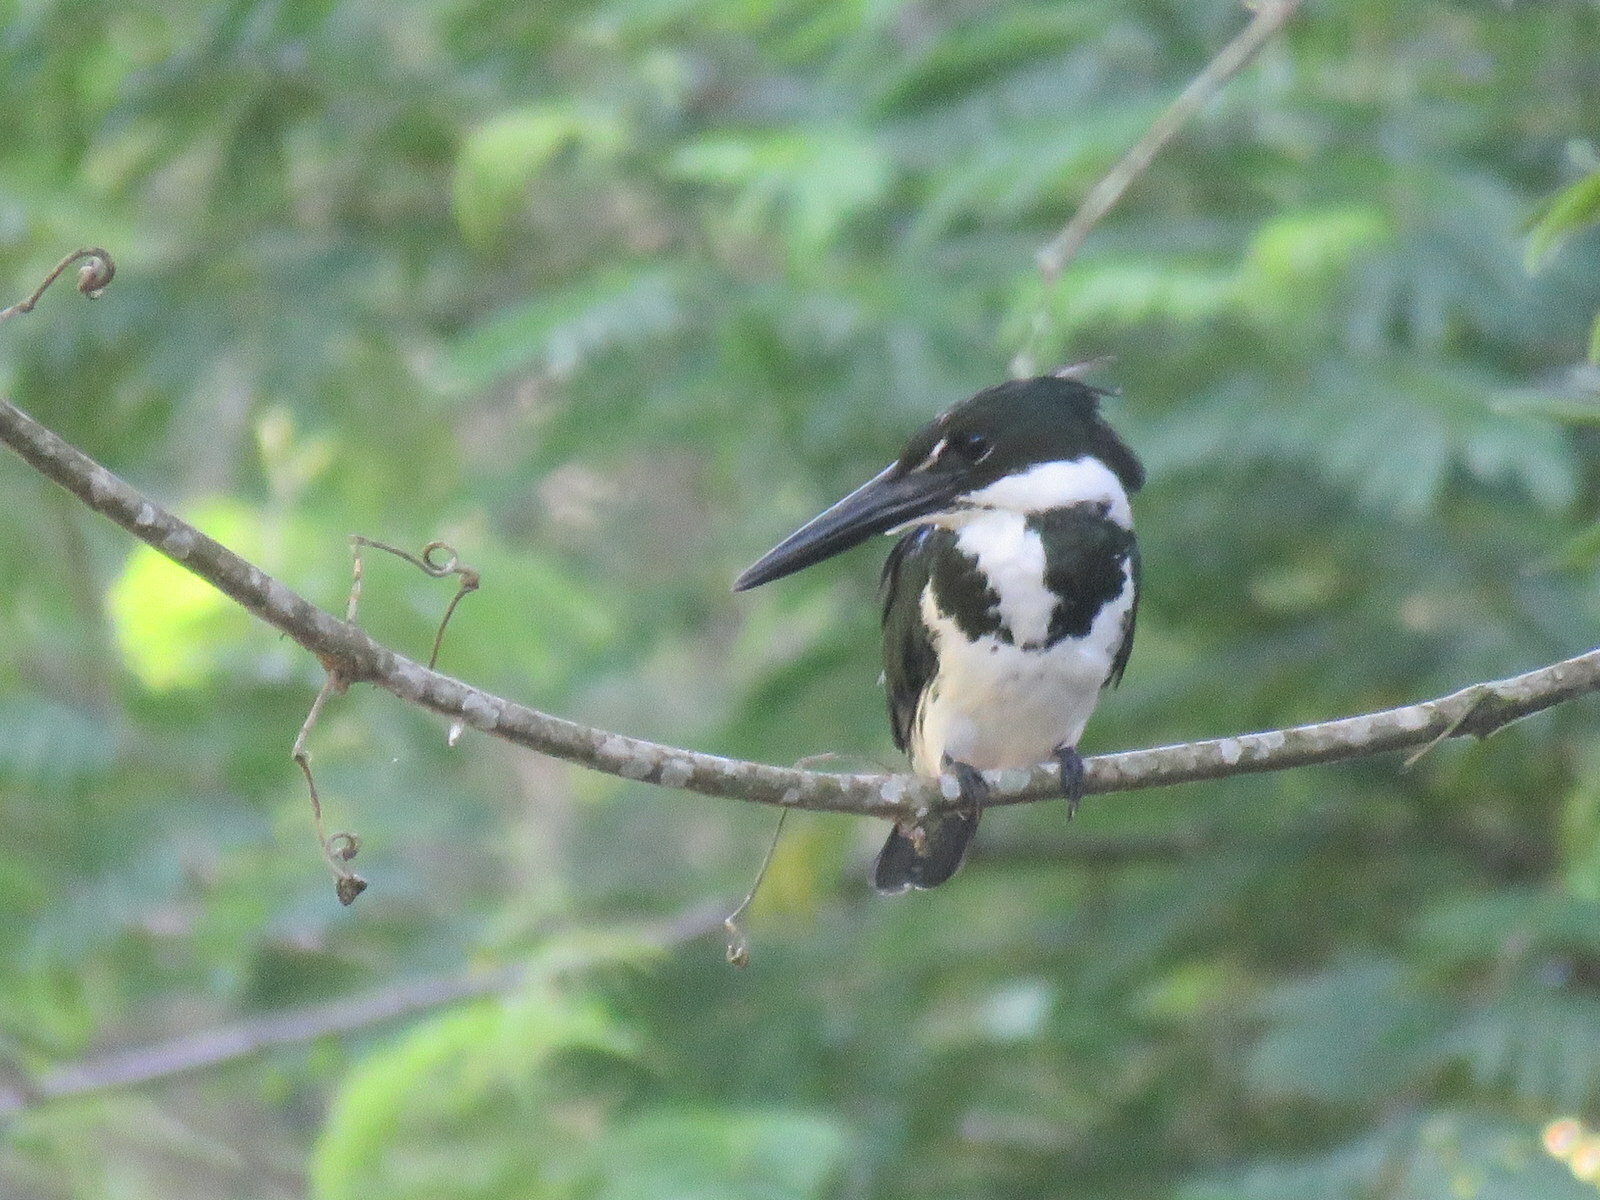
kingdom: Animalia
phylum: Chordata
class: Aves
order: Coraciiformes
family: Alcedinidae
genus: Chloroceryle
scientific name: Chloroceryle amazona
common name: Amazon kingfisher
